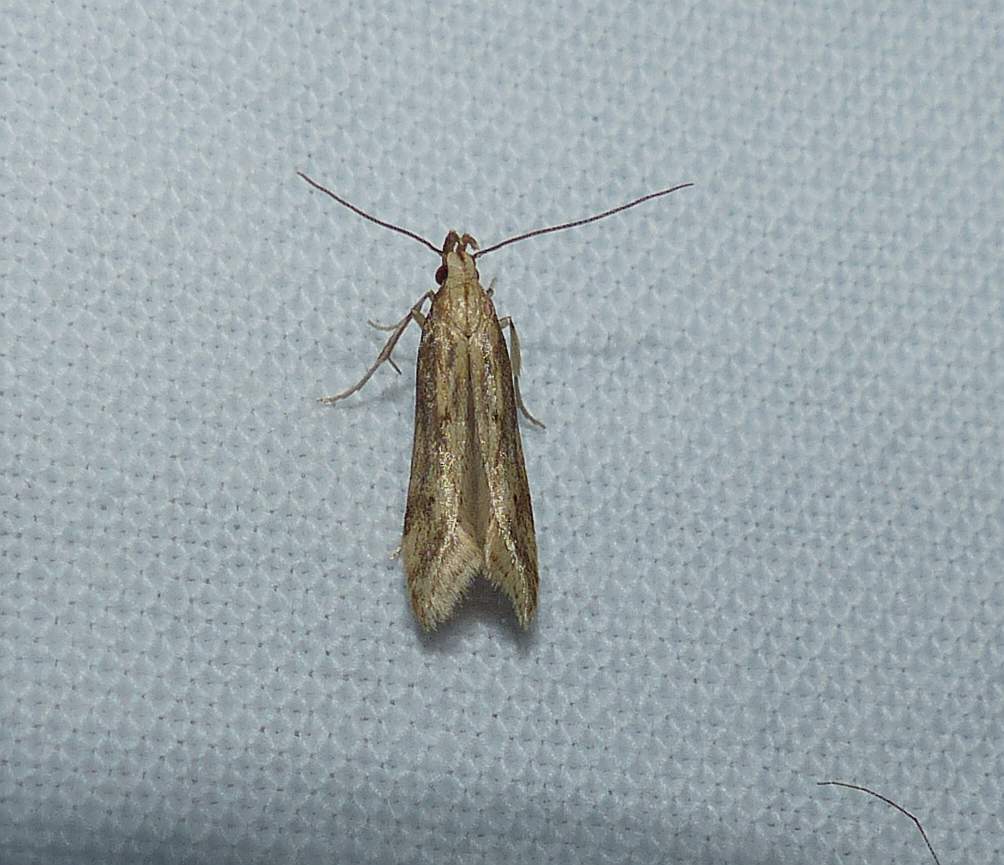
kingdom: Animalia
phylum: Arthropoda
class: Insecta
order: Lepidoptera
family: Gelechiidae
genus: Metzneria
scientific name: Metzneria lappella
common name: Burdock neb
